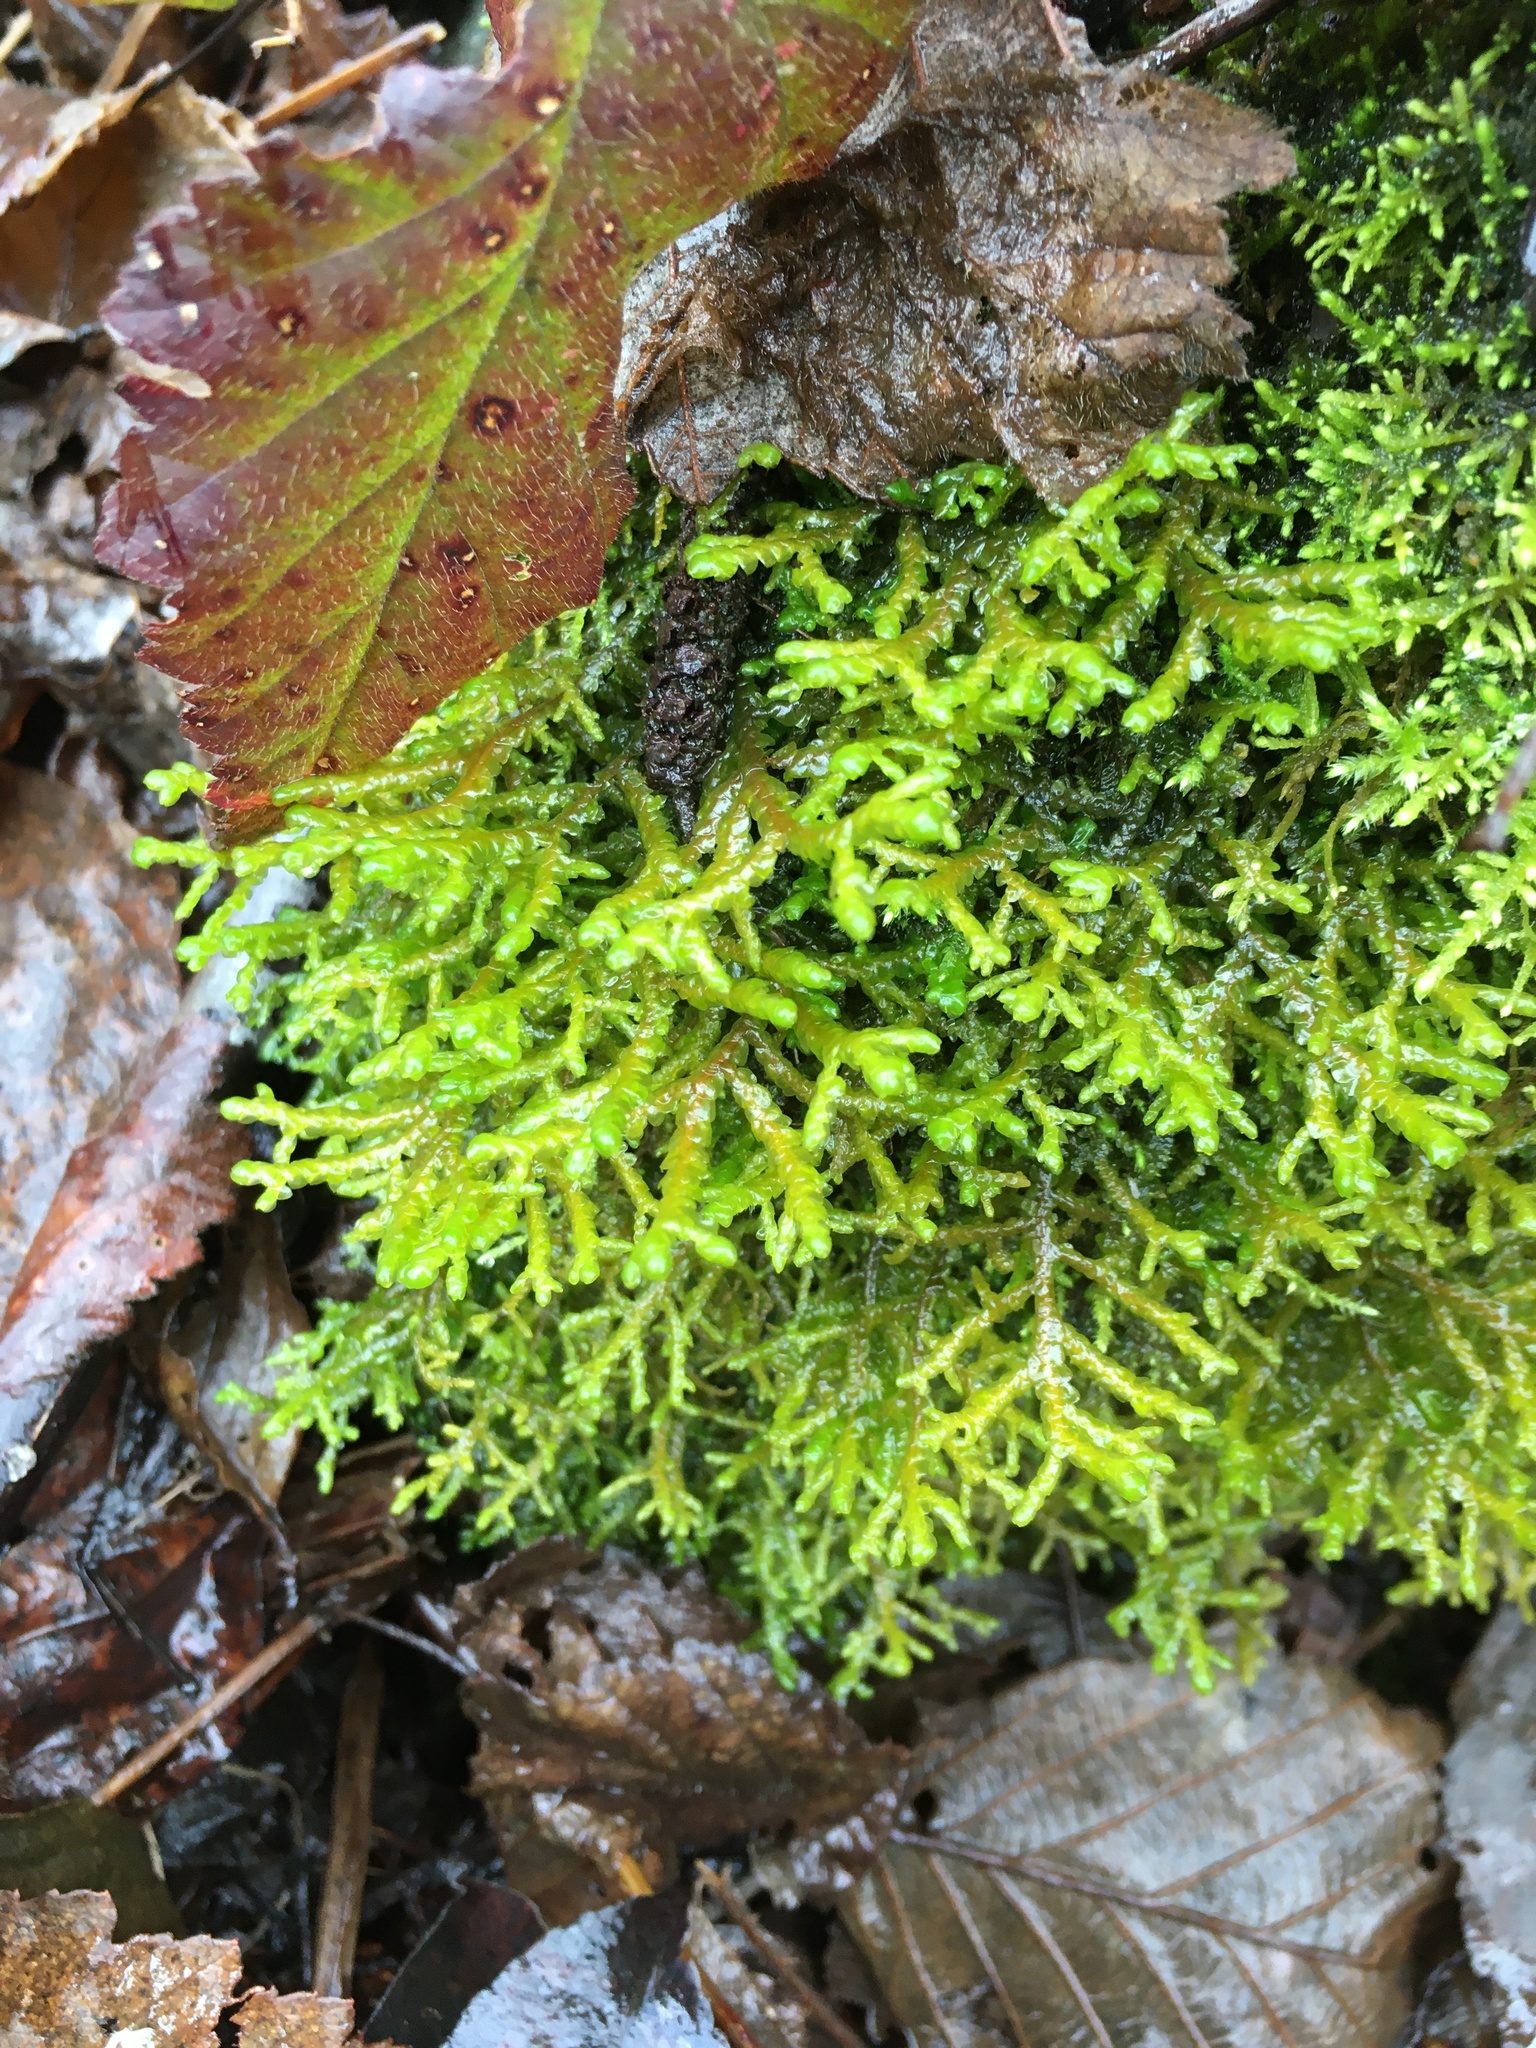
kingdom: Plantae
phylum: Marchantiophyta
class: Jungermanniopsida
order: Porellales
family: Porellaceae
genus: Porella
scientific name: Porella navicularis
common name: Tree ruffle liverwort
